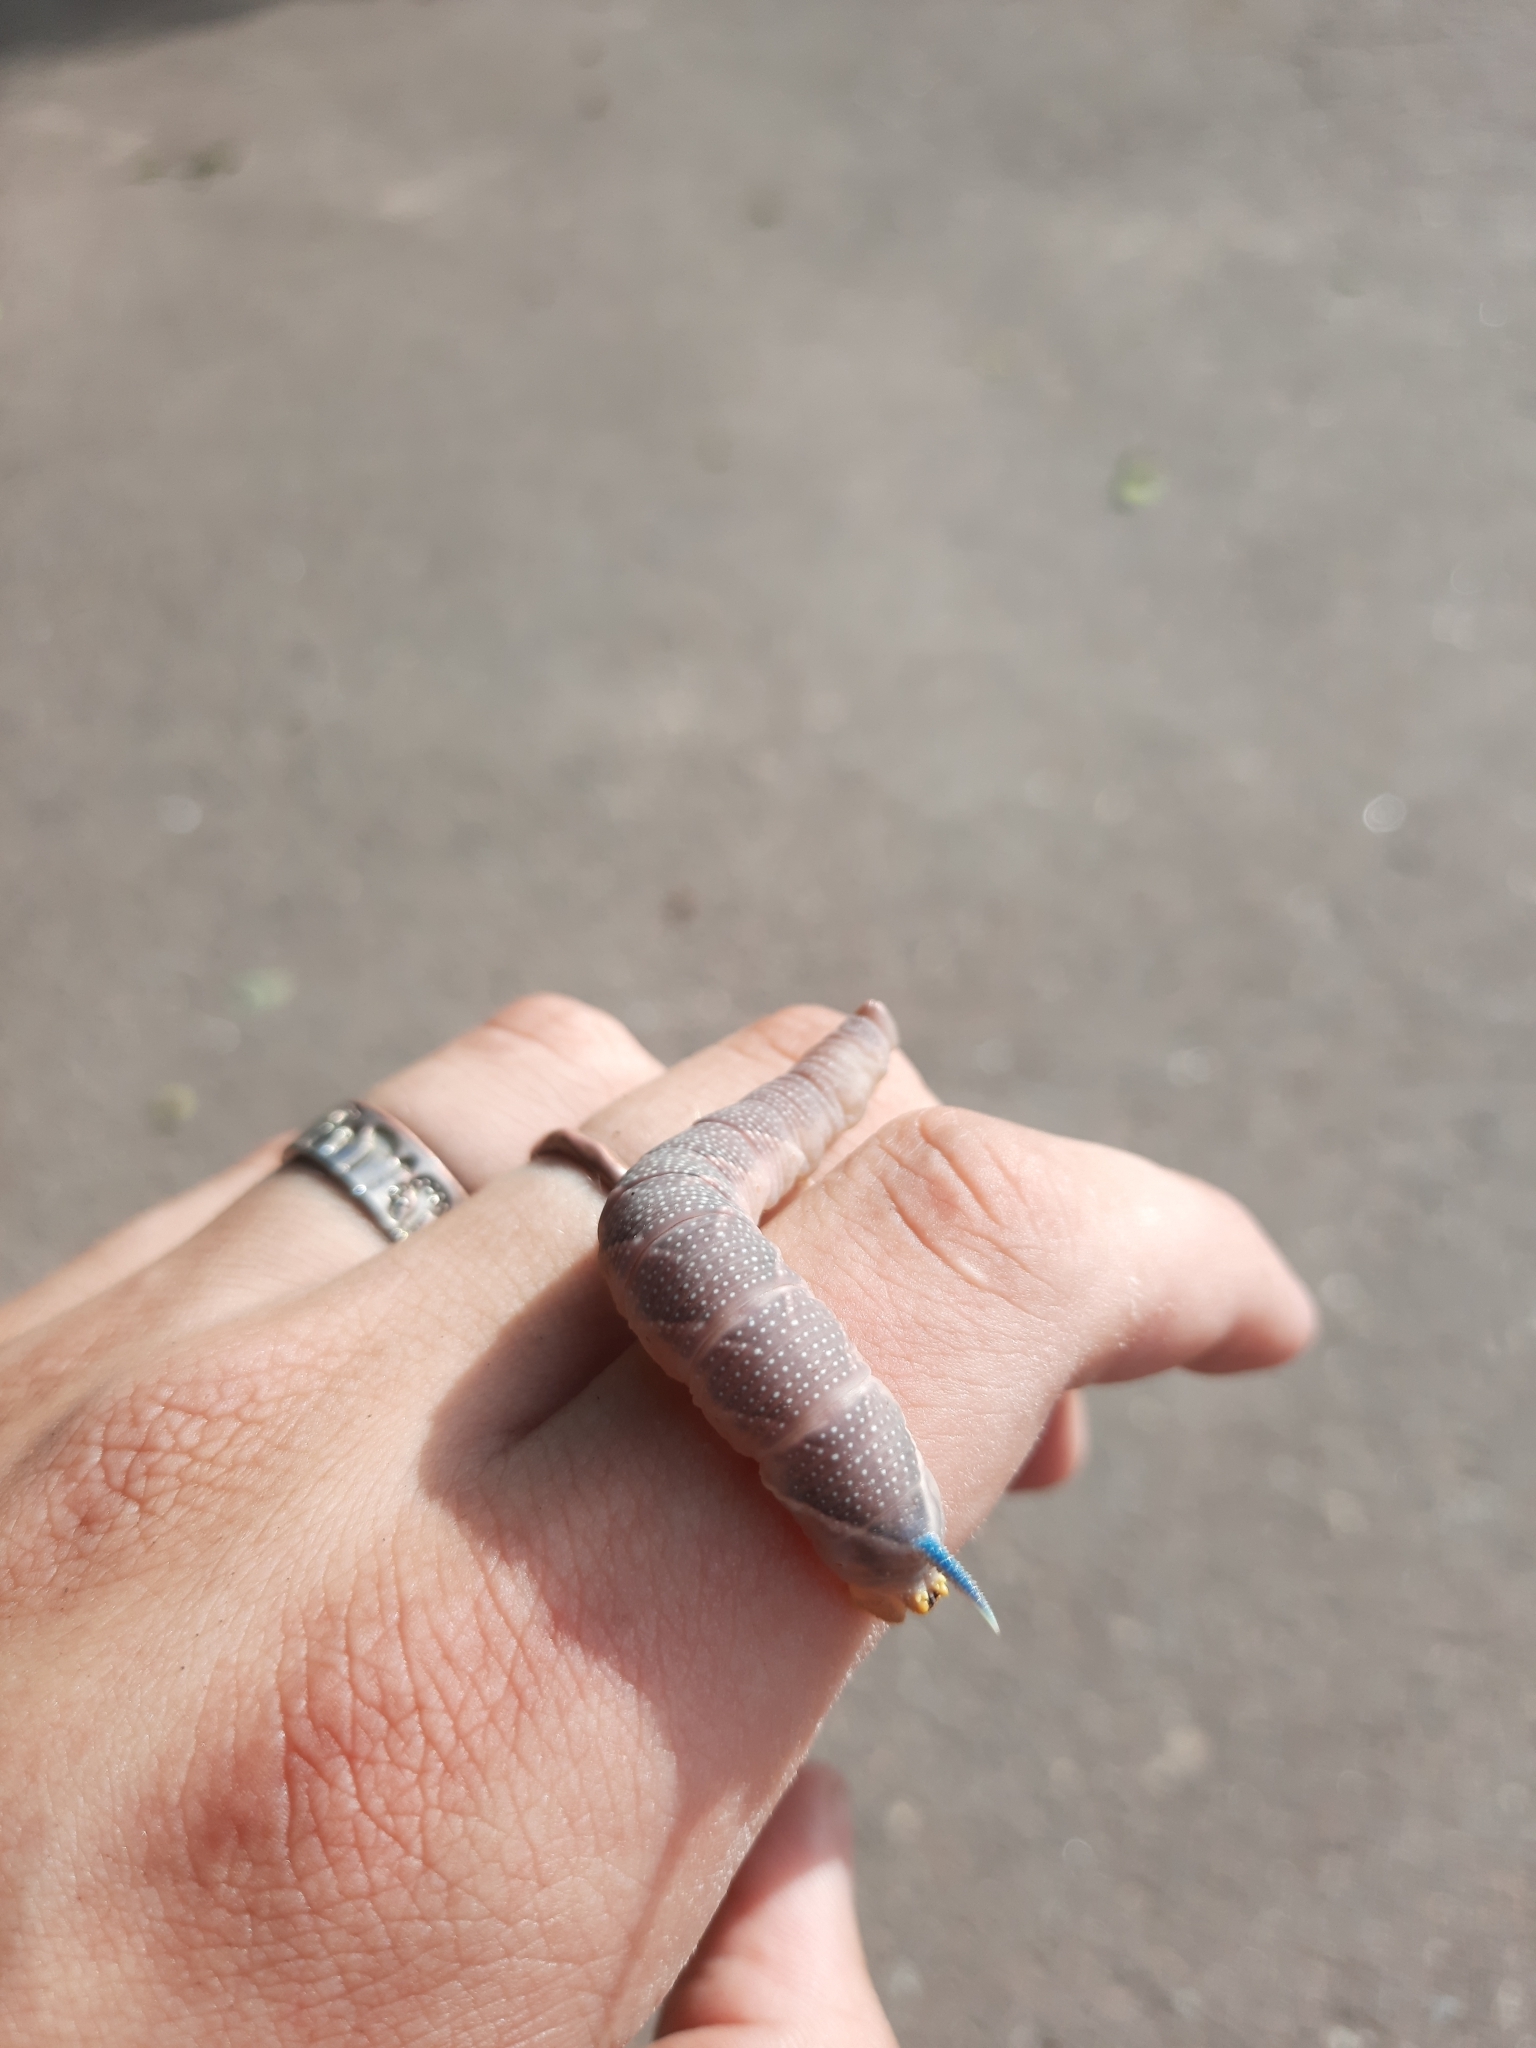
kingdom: Animalia
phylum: Arthropoda
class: Insecta
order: Lepidoptera
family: Sphingidae
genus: Mimas
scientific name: Mimas tiliae
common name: Lime hawk-moth
